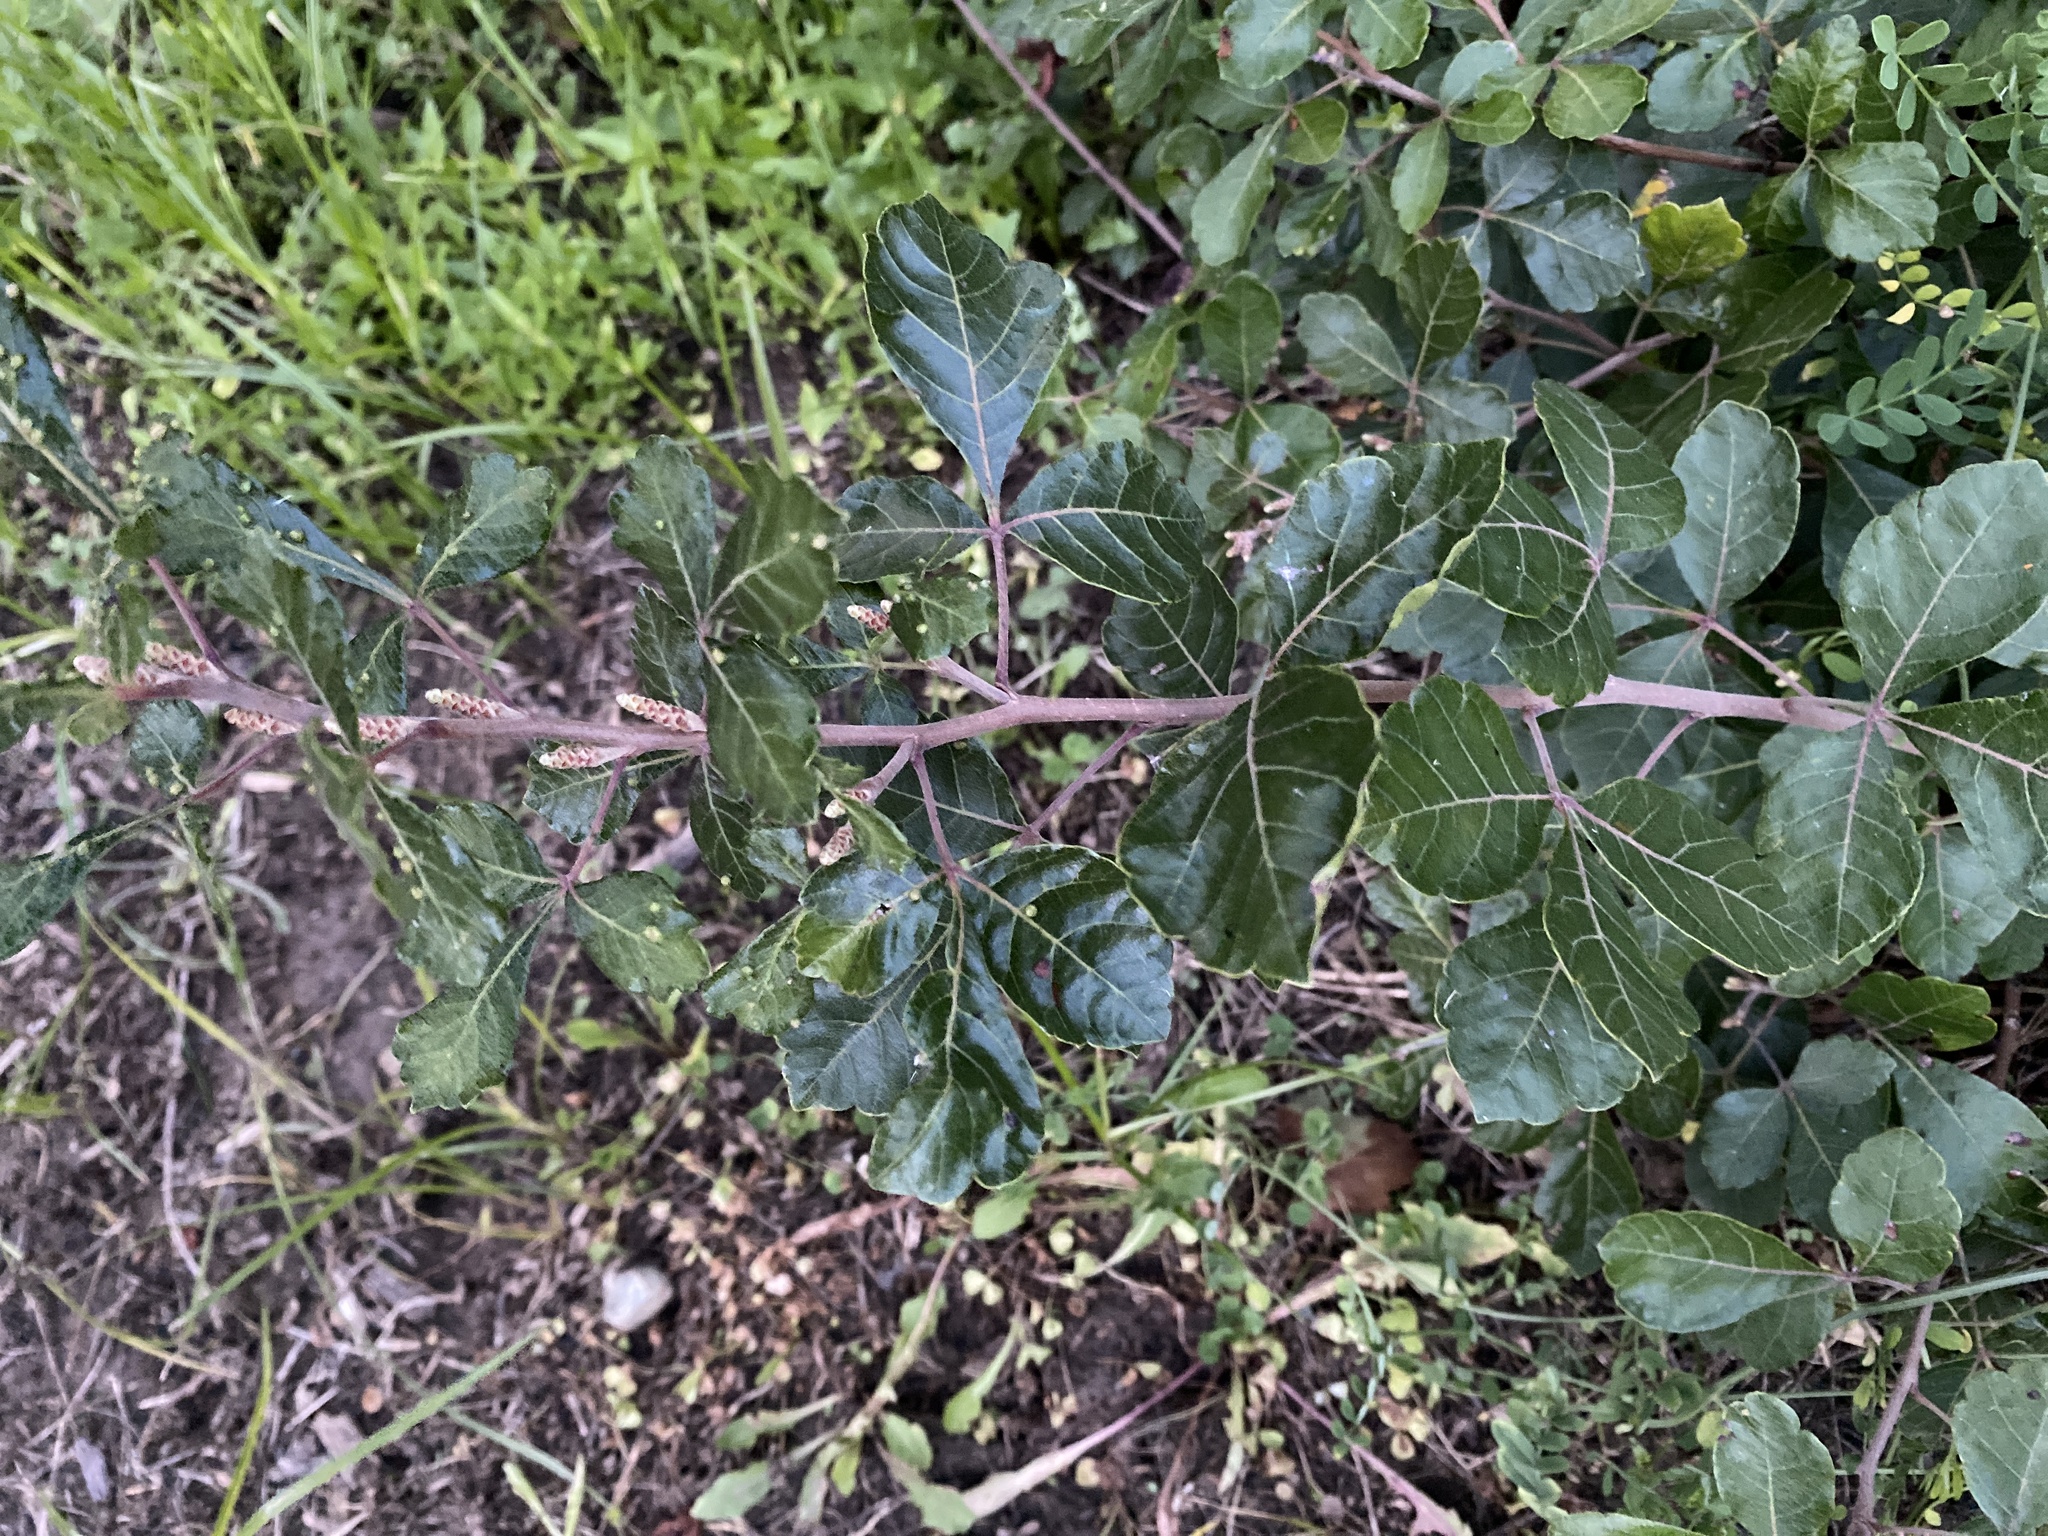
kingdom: Plantae
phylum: Tracheophyta
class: Magnoliopsida
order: Sapindales
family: Anacardiaceae
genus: Rhus
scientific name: Rhus aromatica
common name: Aromatic sumac
